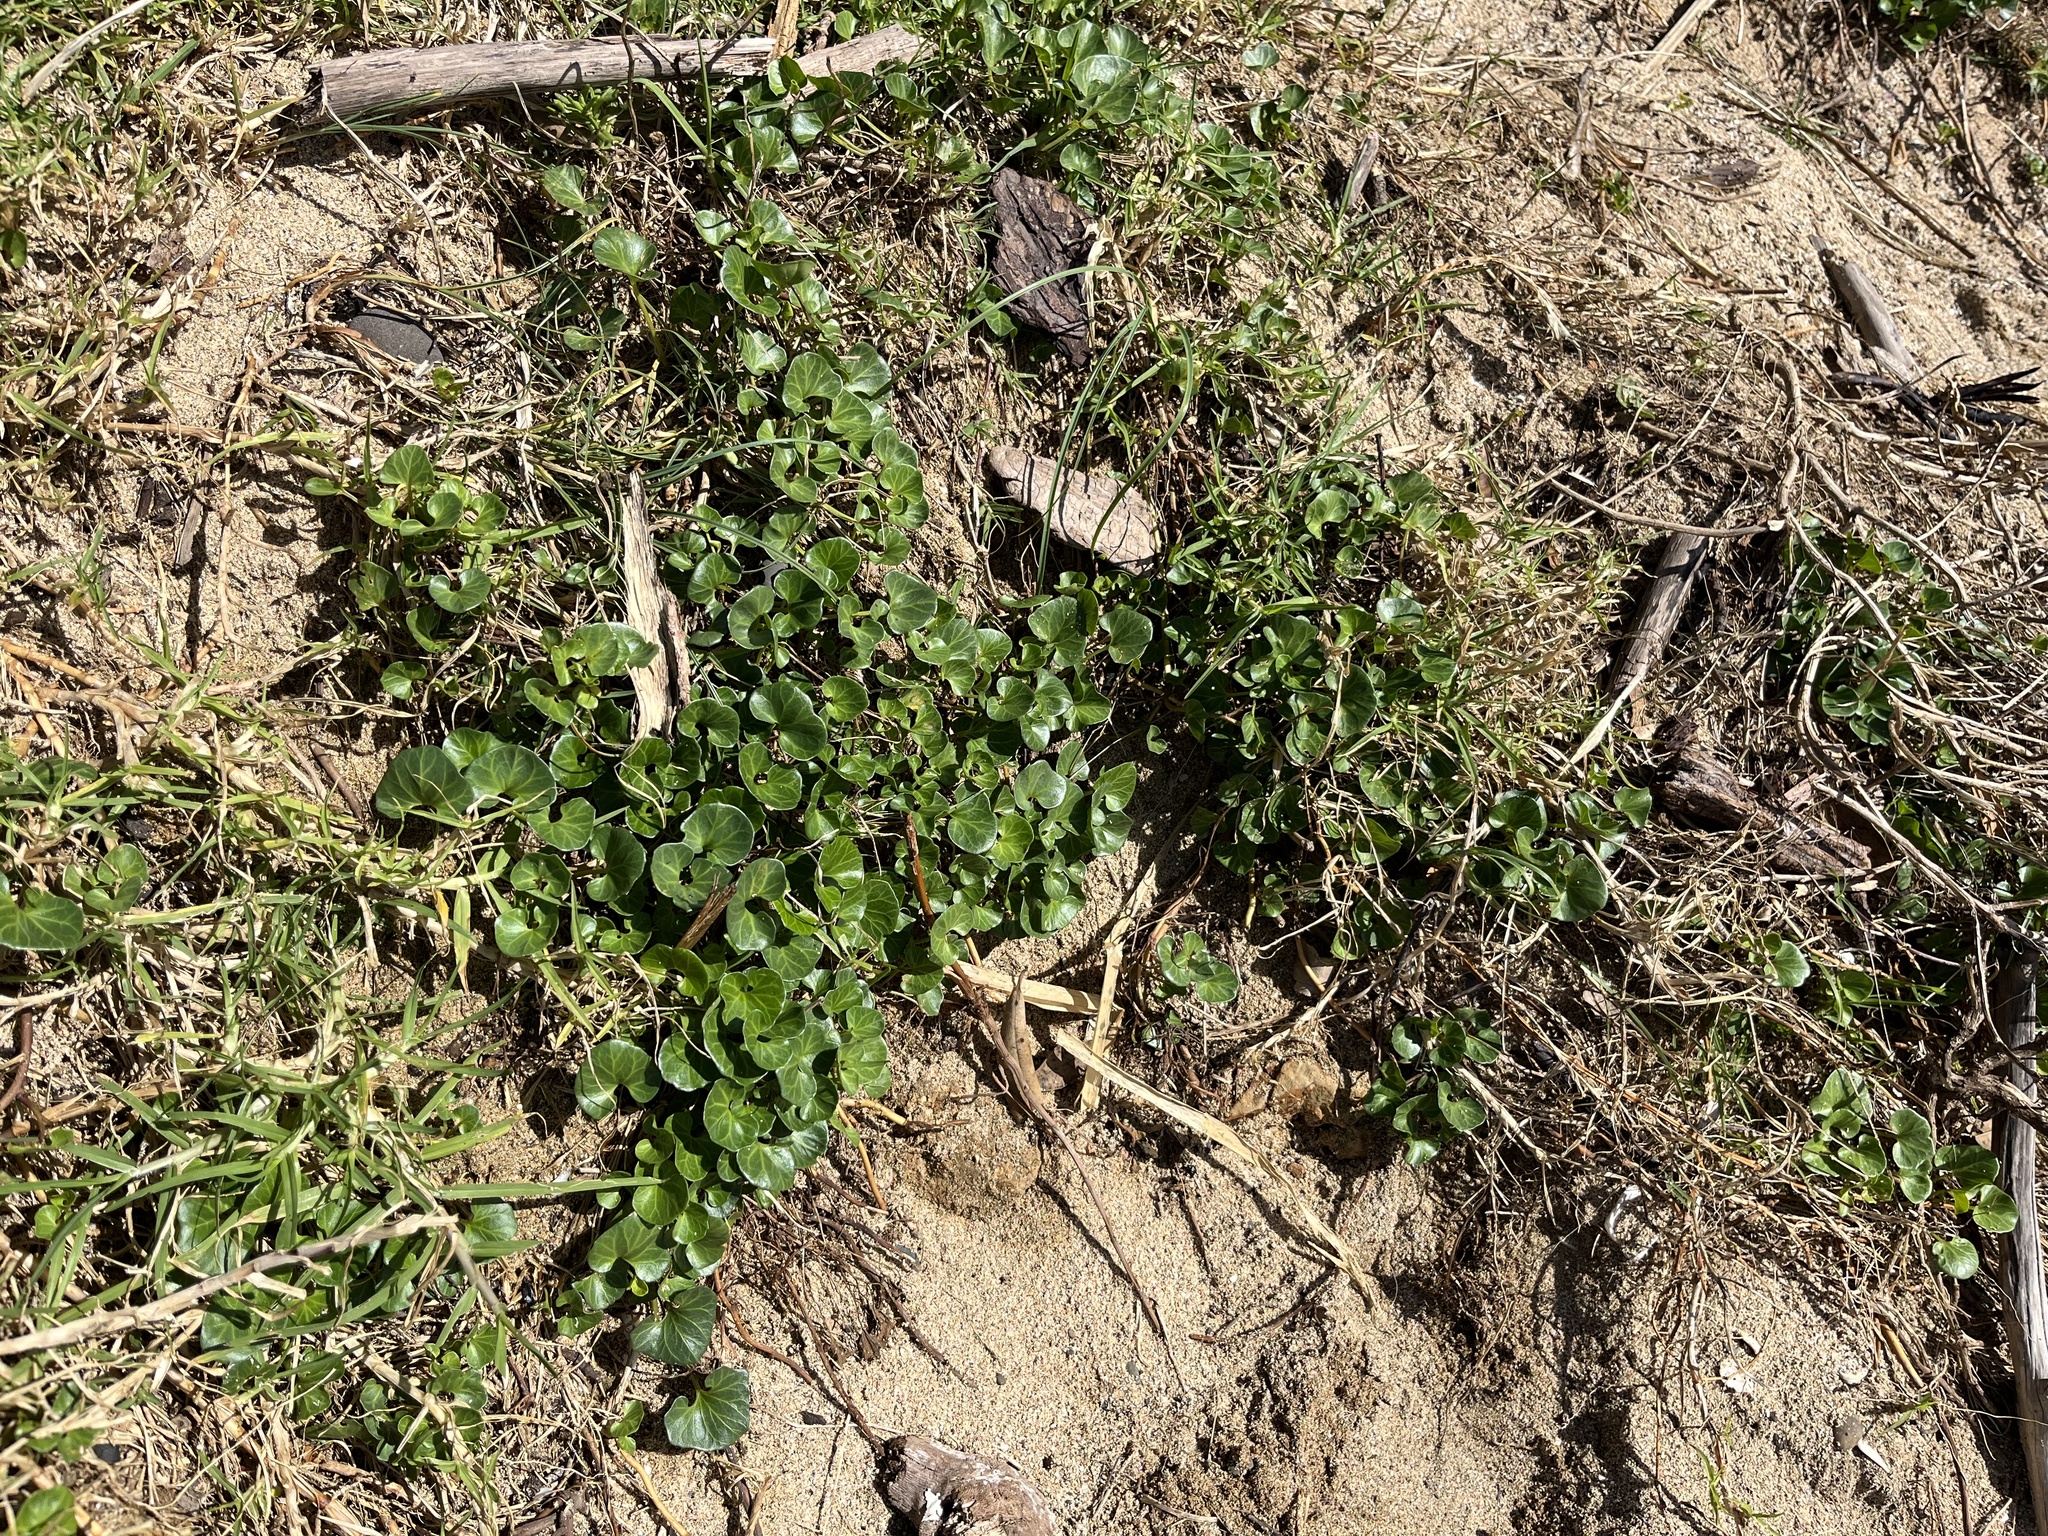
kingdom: Plantae
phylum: Tracheophyta
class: Magnoliopsida
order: Solanales
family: Convolvulaceae
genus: Calystegia
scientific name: Calystegia soldanella
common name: Sea bindweed
